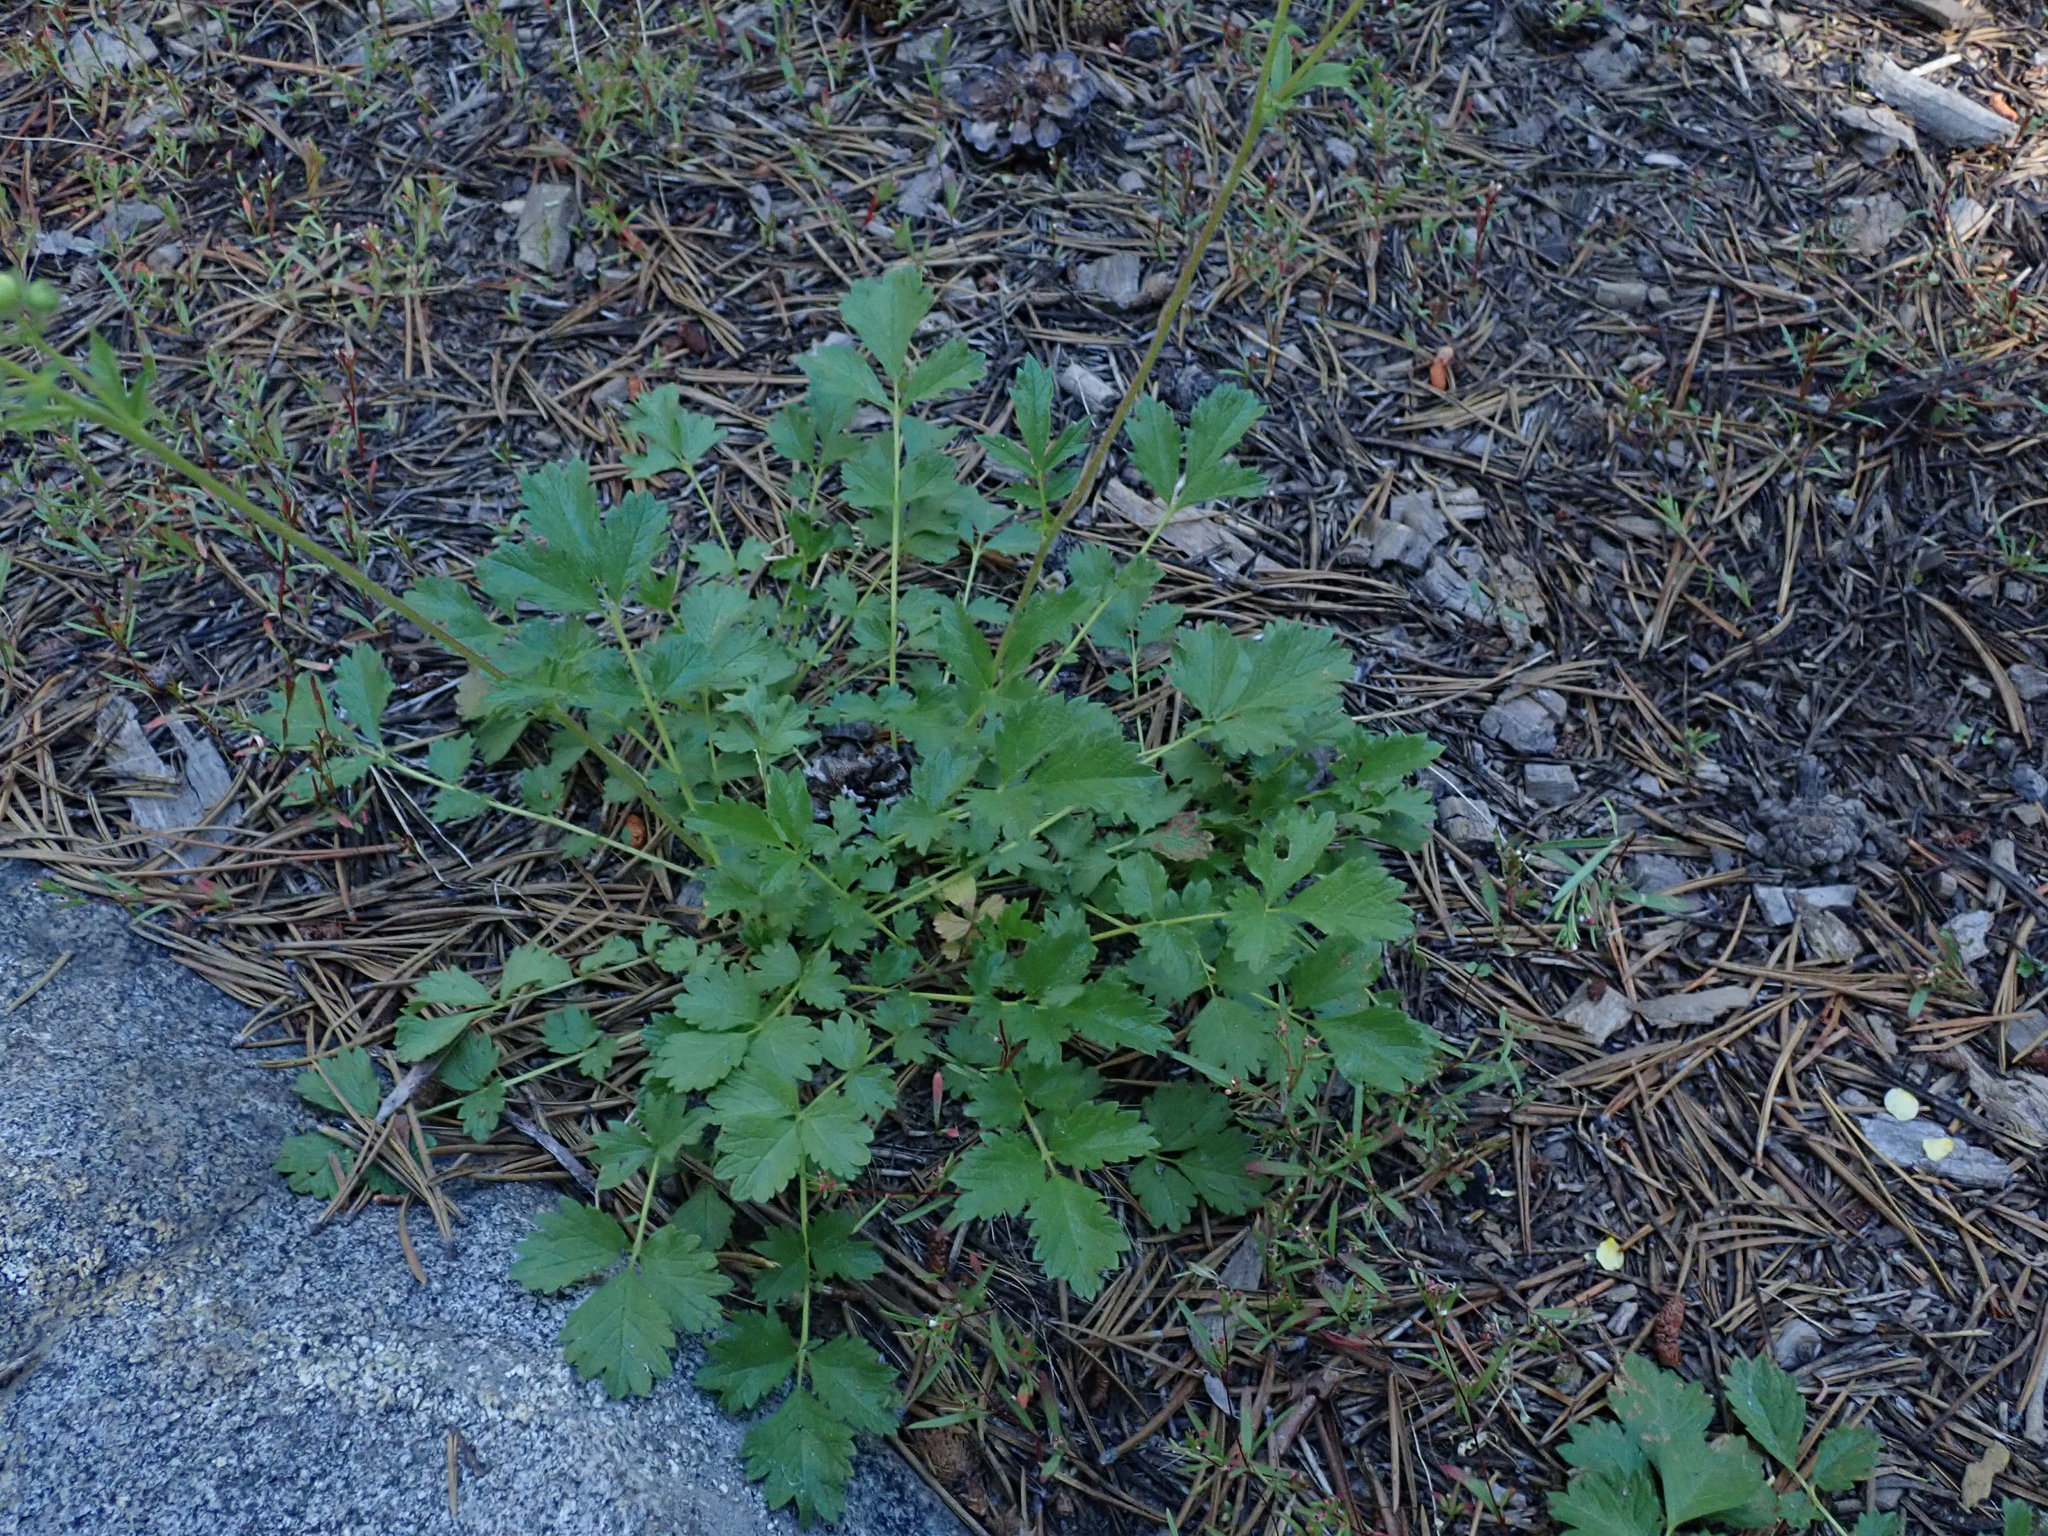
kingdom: Plantae
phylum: Tracheophyta
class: Magnoliopsida
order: Rosales
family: Rosaceae
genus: Drymocallis
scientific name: Drymocallis glandulosa
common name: Sticky cinquefoil
